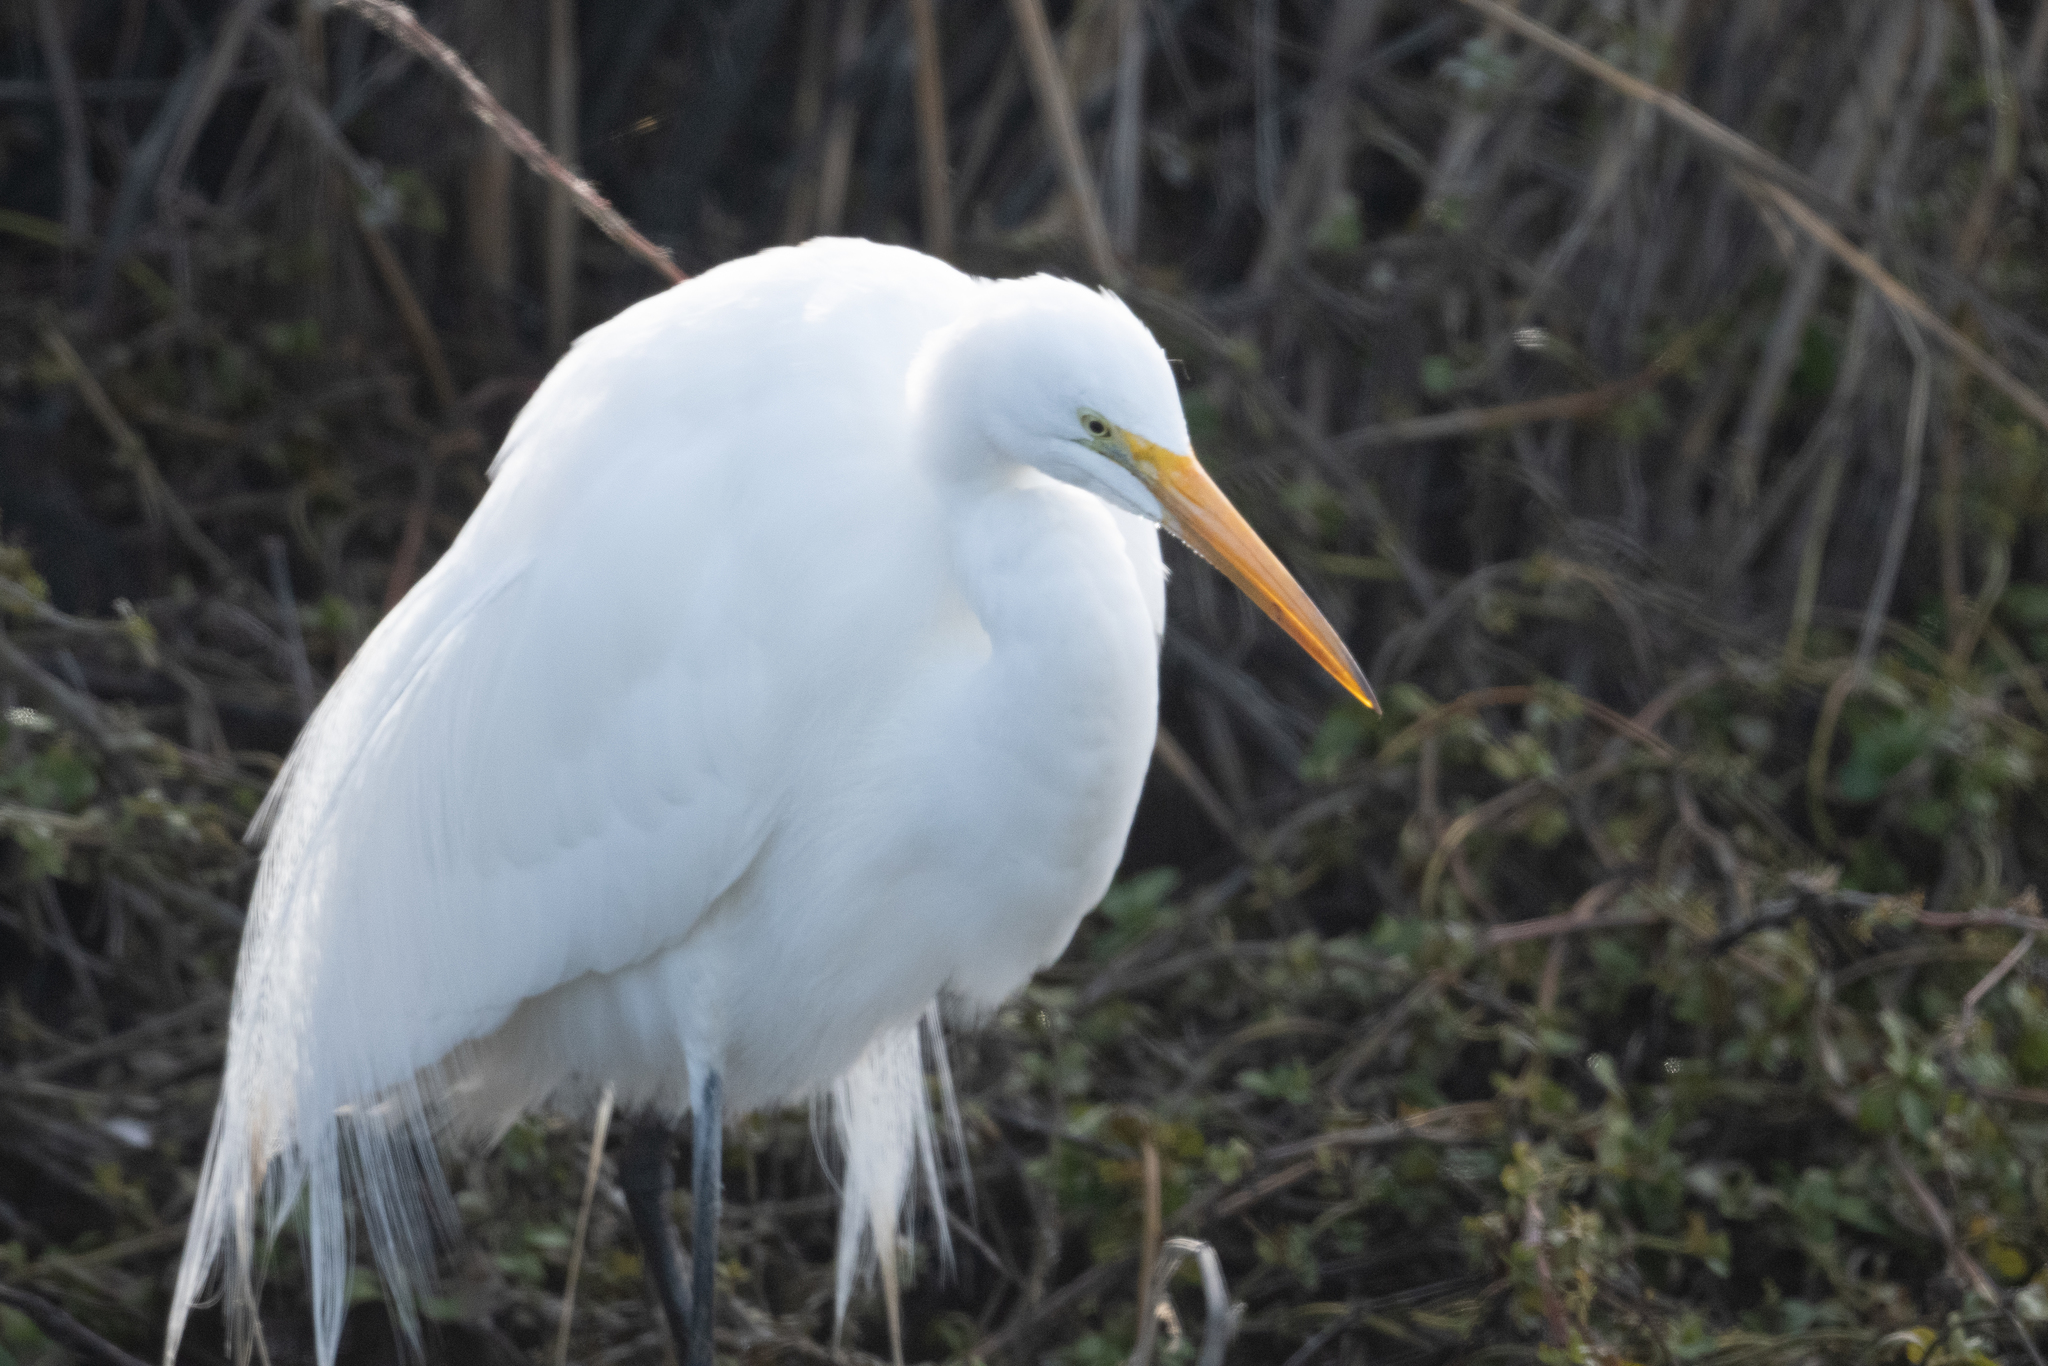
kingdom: Animalia
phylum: Chordata
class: Aves
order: Pelecaniformes
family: Ardeidae
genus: Ardea
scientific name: Ardea alba
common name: Great egret
